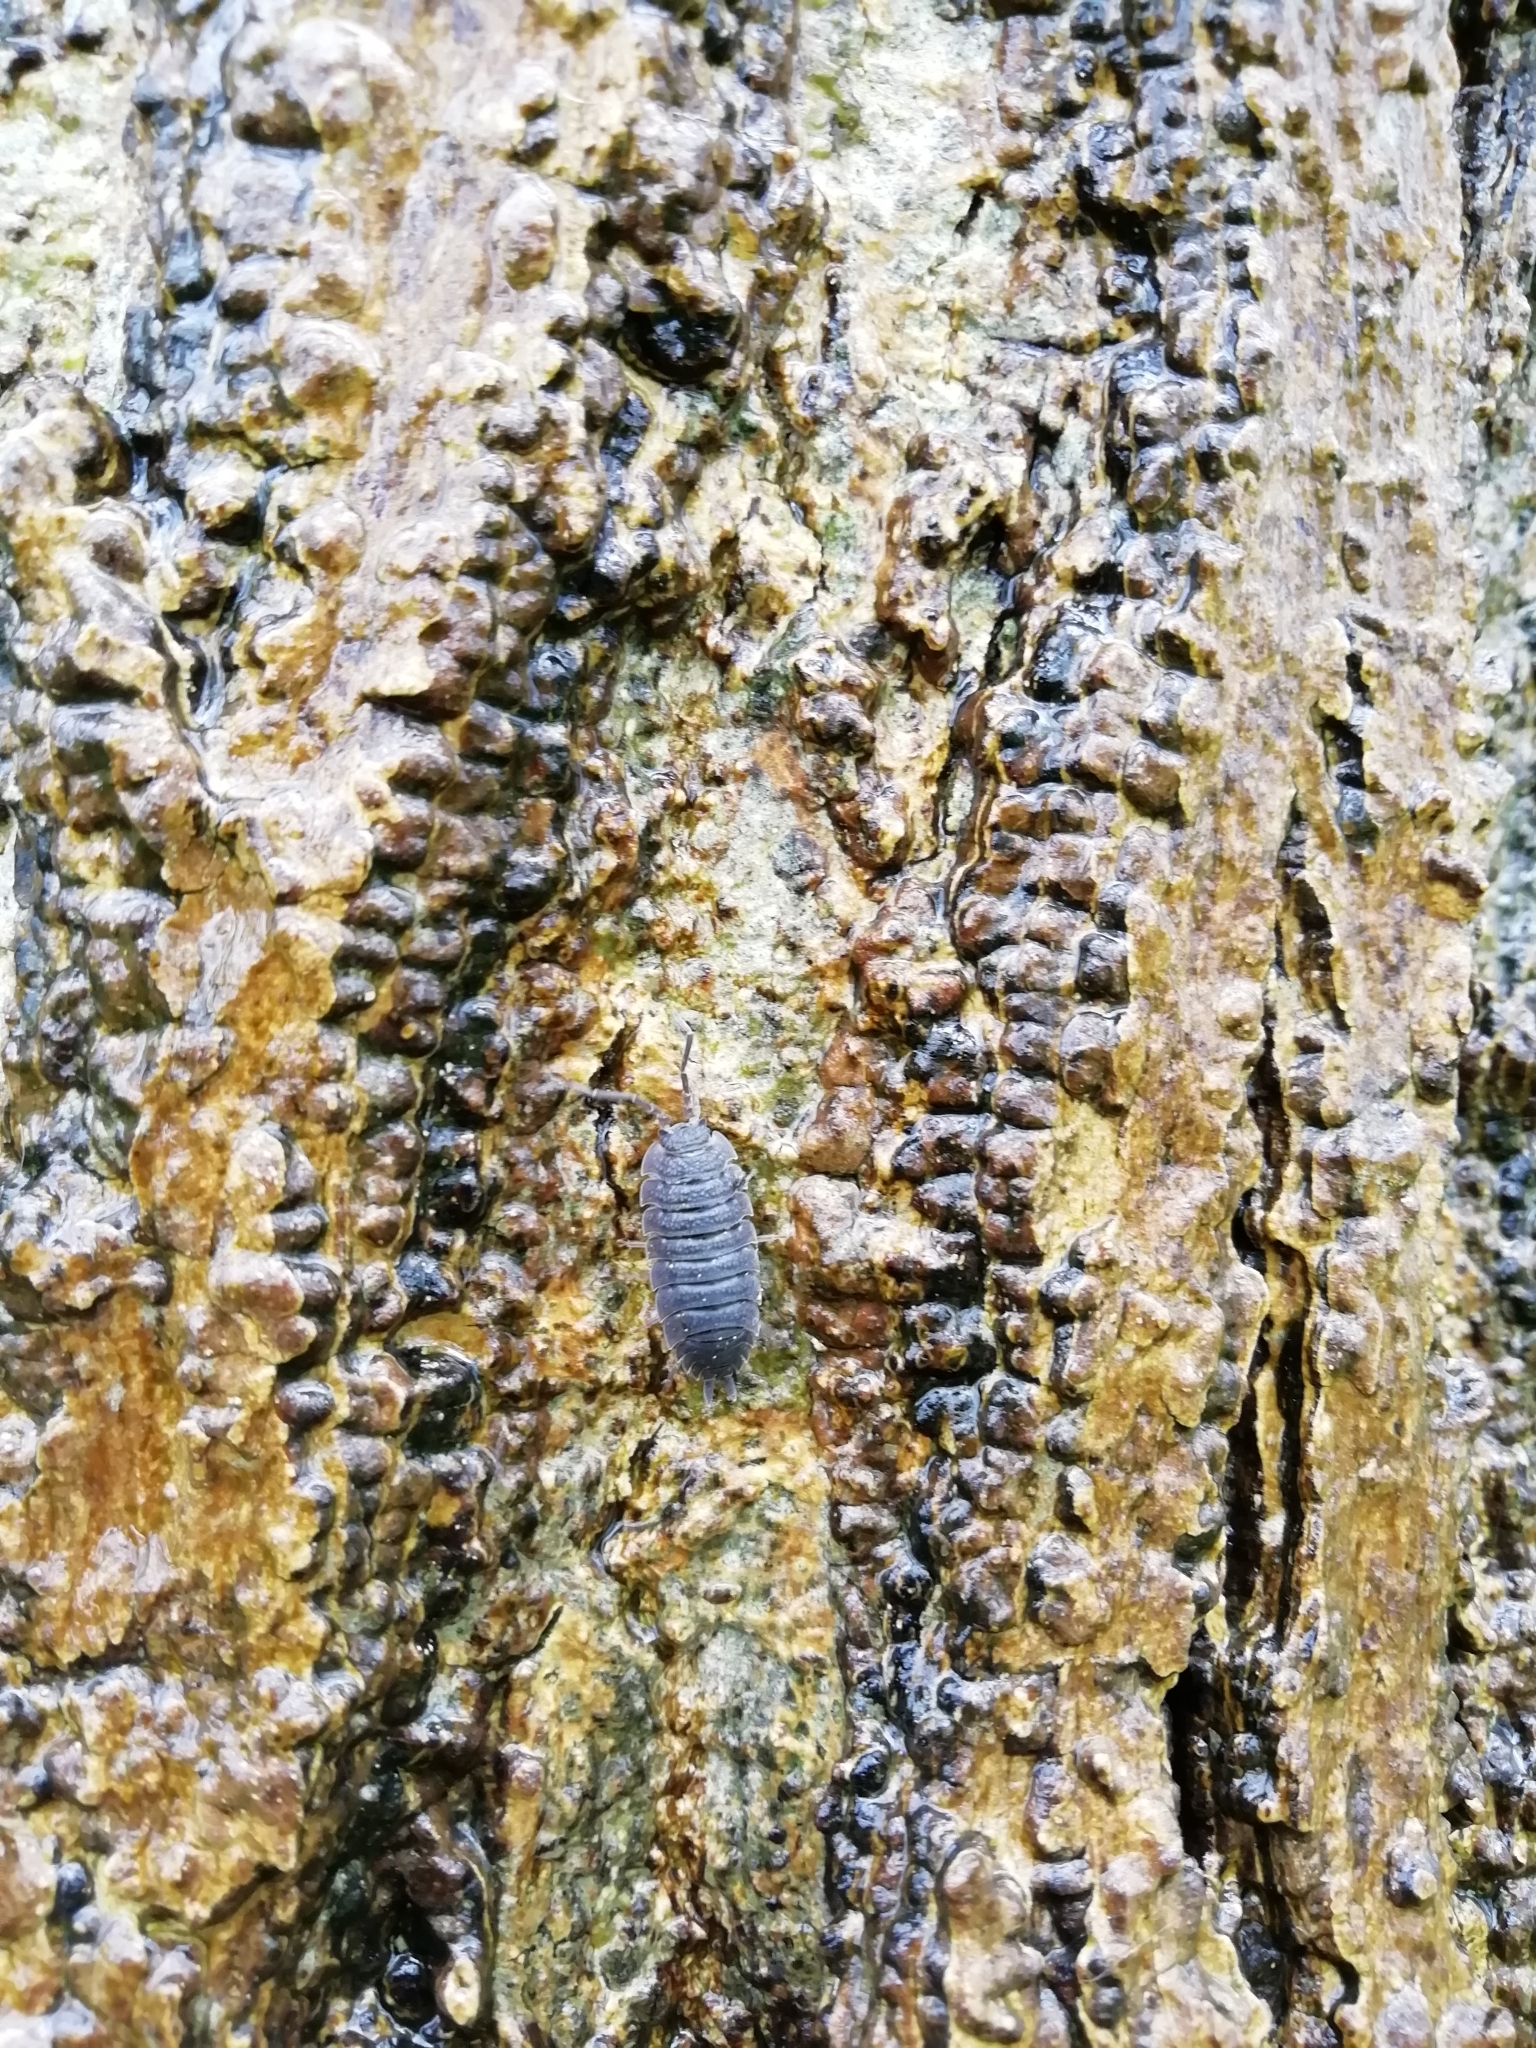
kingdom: Animalia
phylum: Arthropoda
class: Malacostraca
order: Isopoda
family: Porcellionidae
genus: Porcellio
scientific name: Porcellio scaber
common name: Common rough woodlouse
